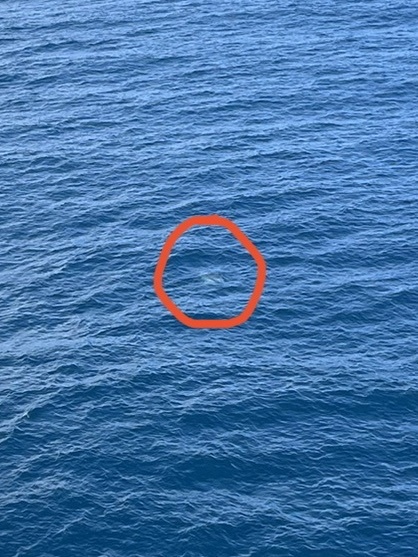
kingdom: Animalia
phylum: Chordata
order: Tetraodontiformes
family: Molidae
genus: Mola
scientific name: Mola mola
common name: Ocean sunfish
